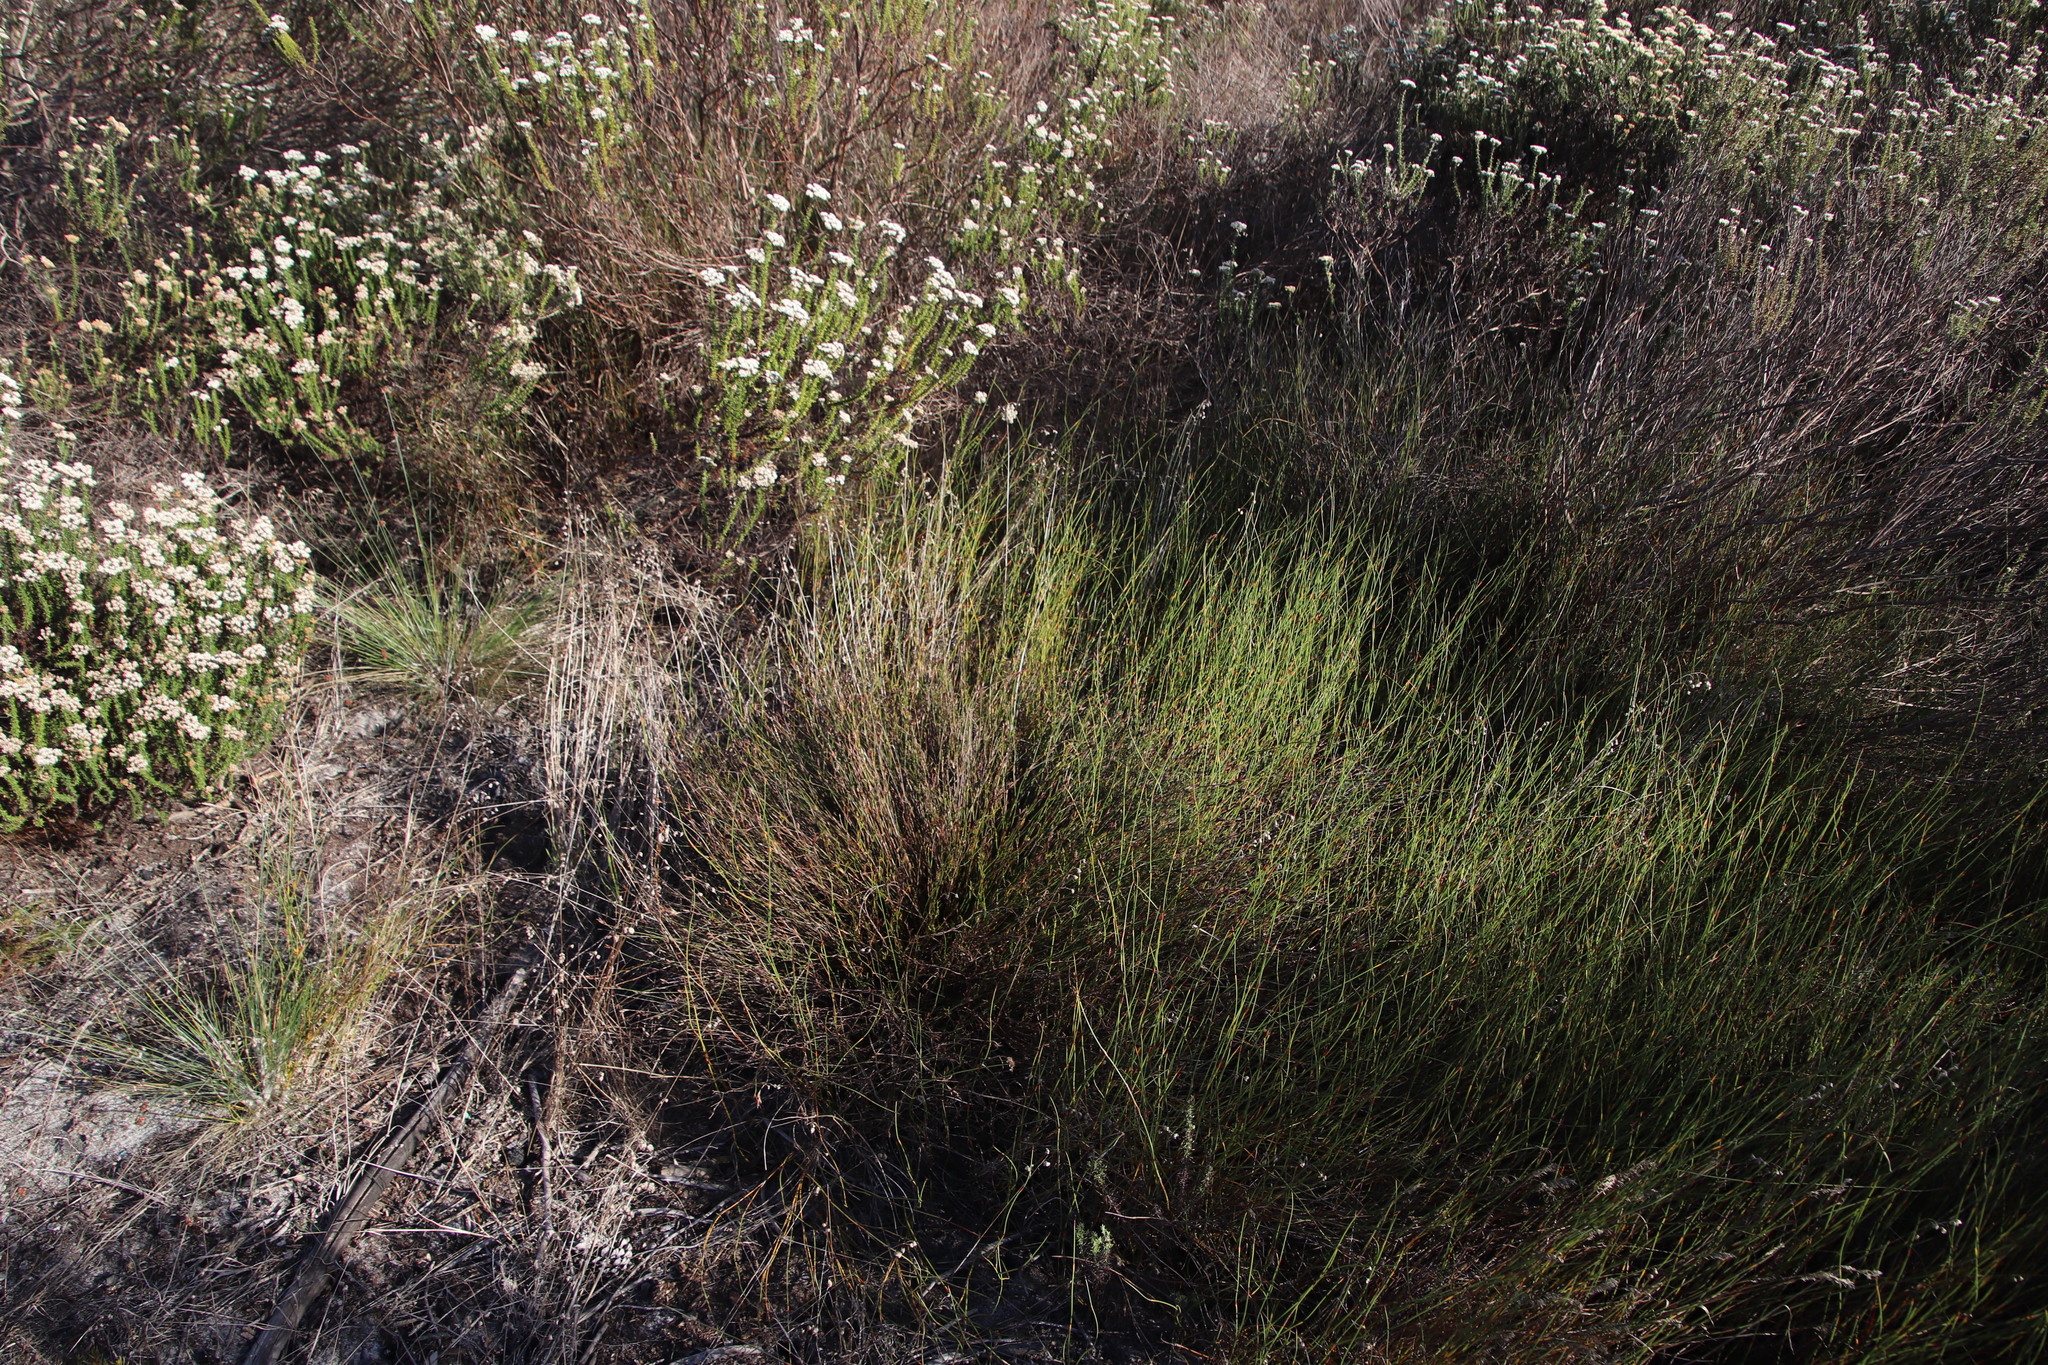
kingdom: Plantae
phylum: Tracheophyta
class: Liliopsida
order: Poales
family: Restionaceae
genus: Restio
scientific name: Restio capensis
